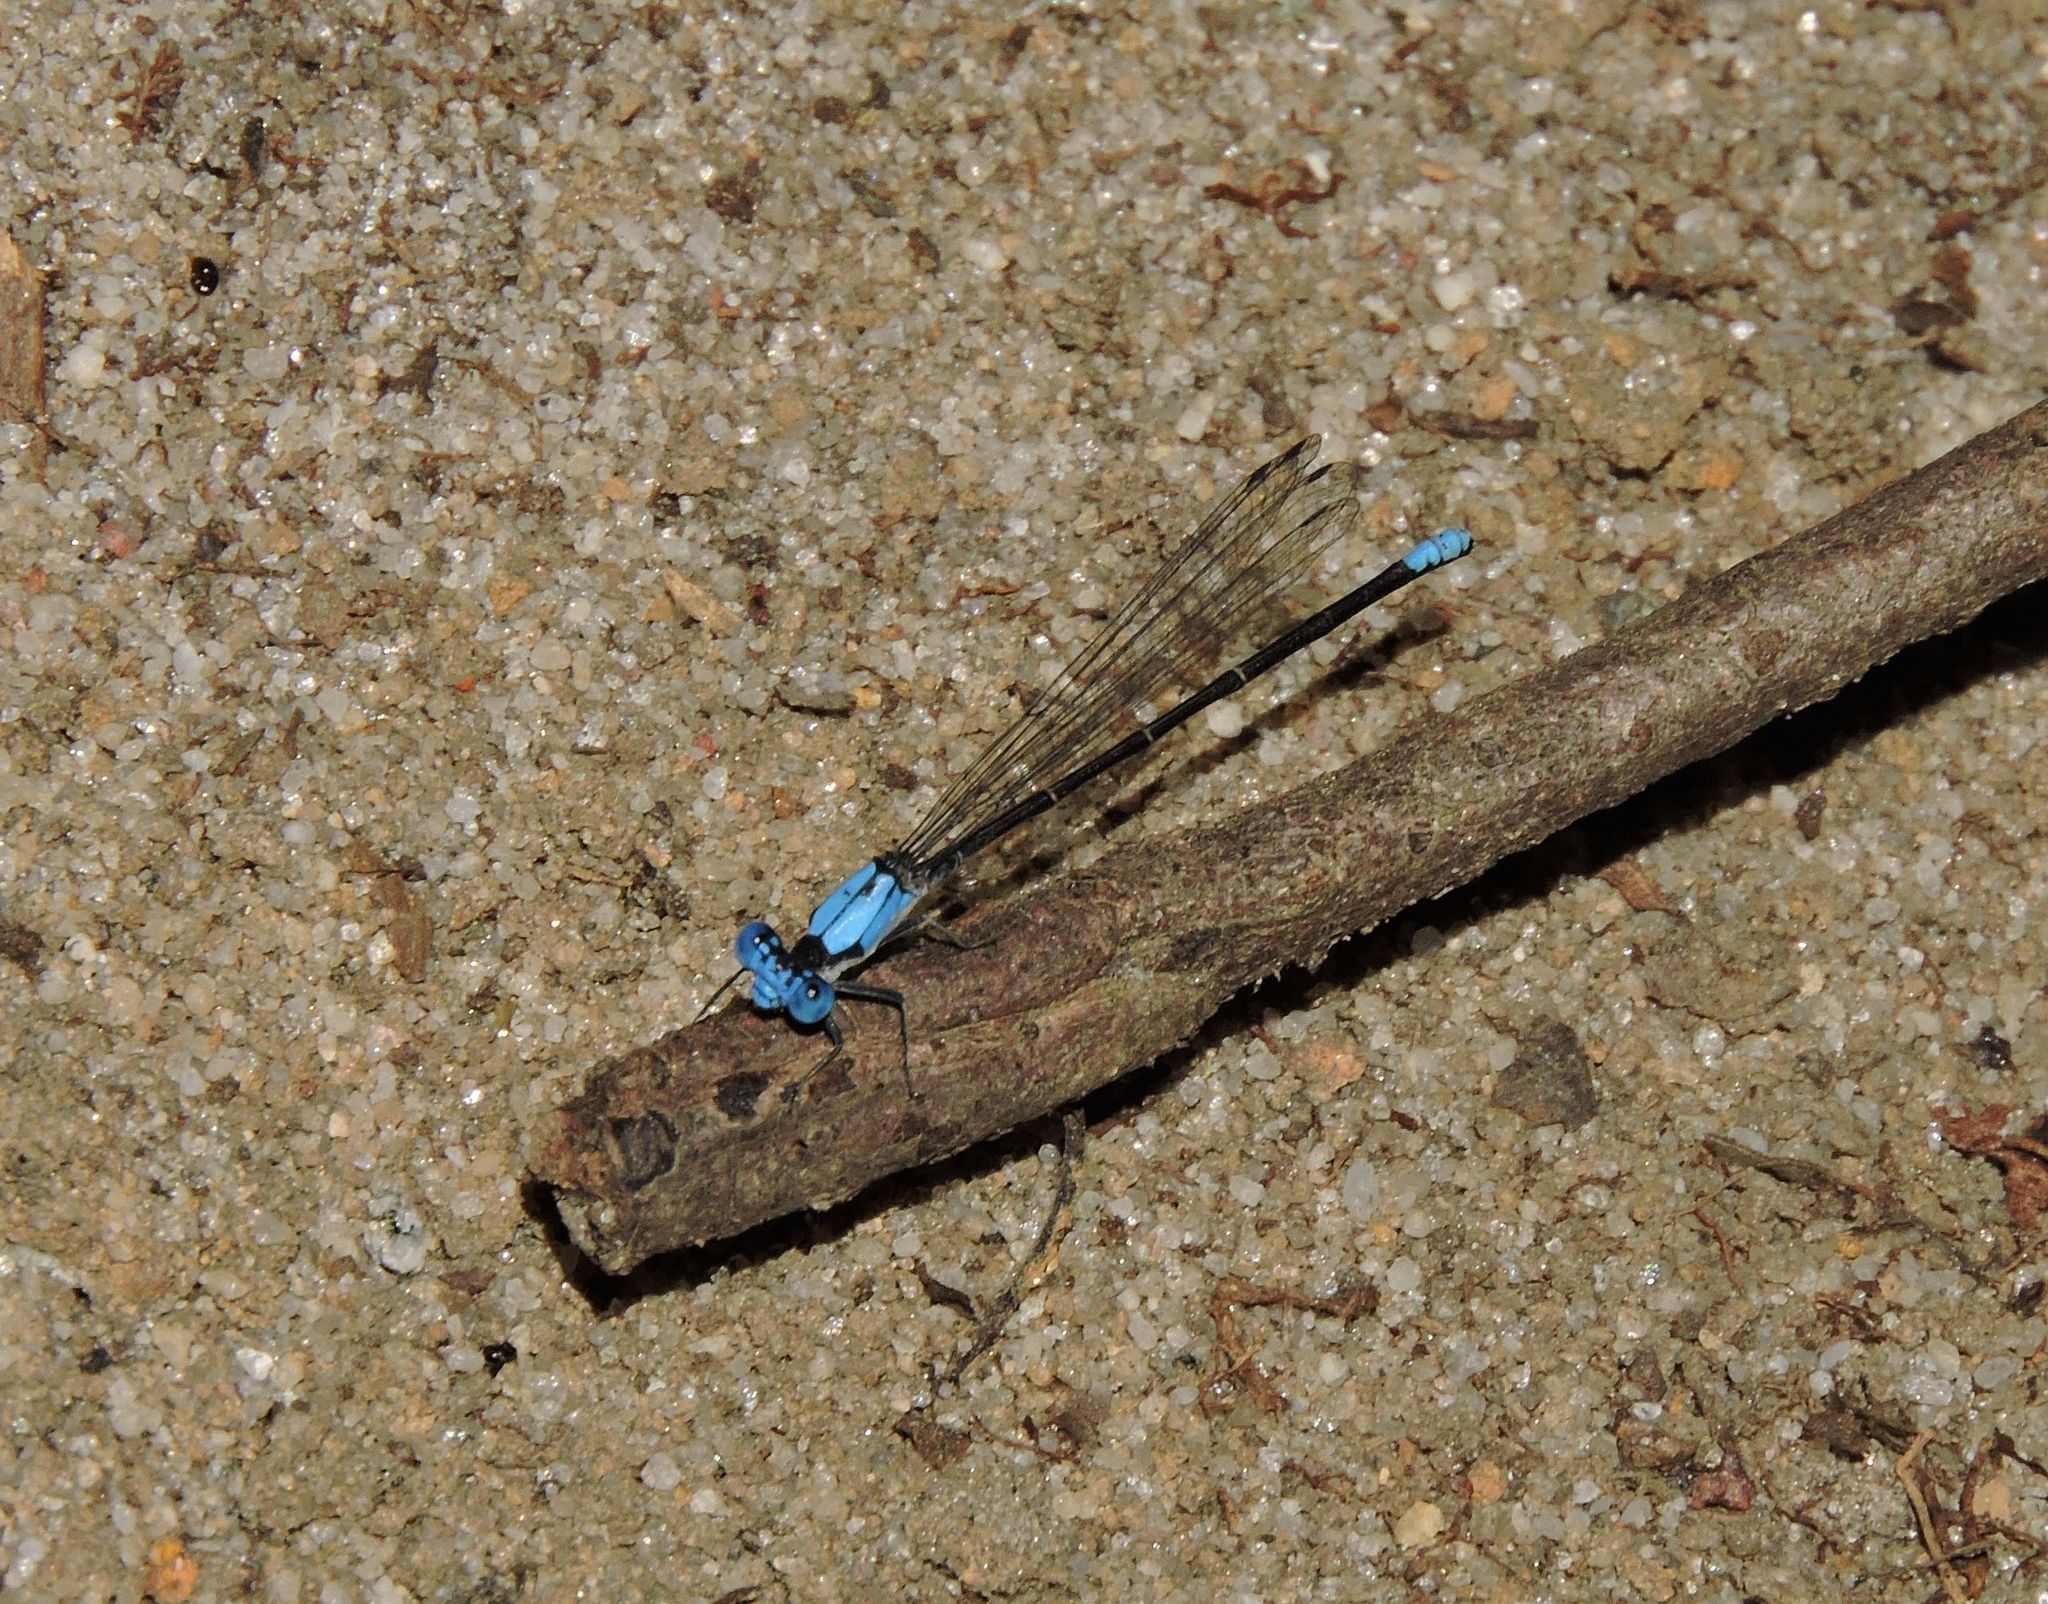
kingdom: Animalia
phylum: Arthropoda
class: Insecta
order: Odonata
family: Coenagrionidae
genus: Argia
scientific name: Argia apicalis
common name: Blue-fronted dancer
